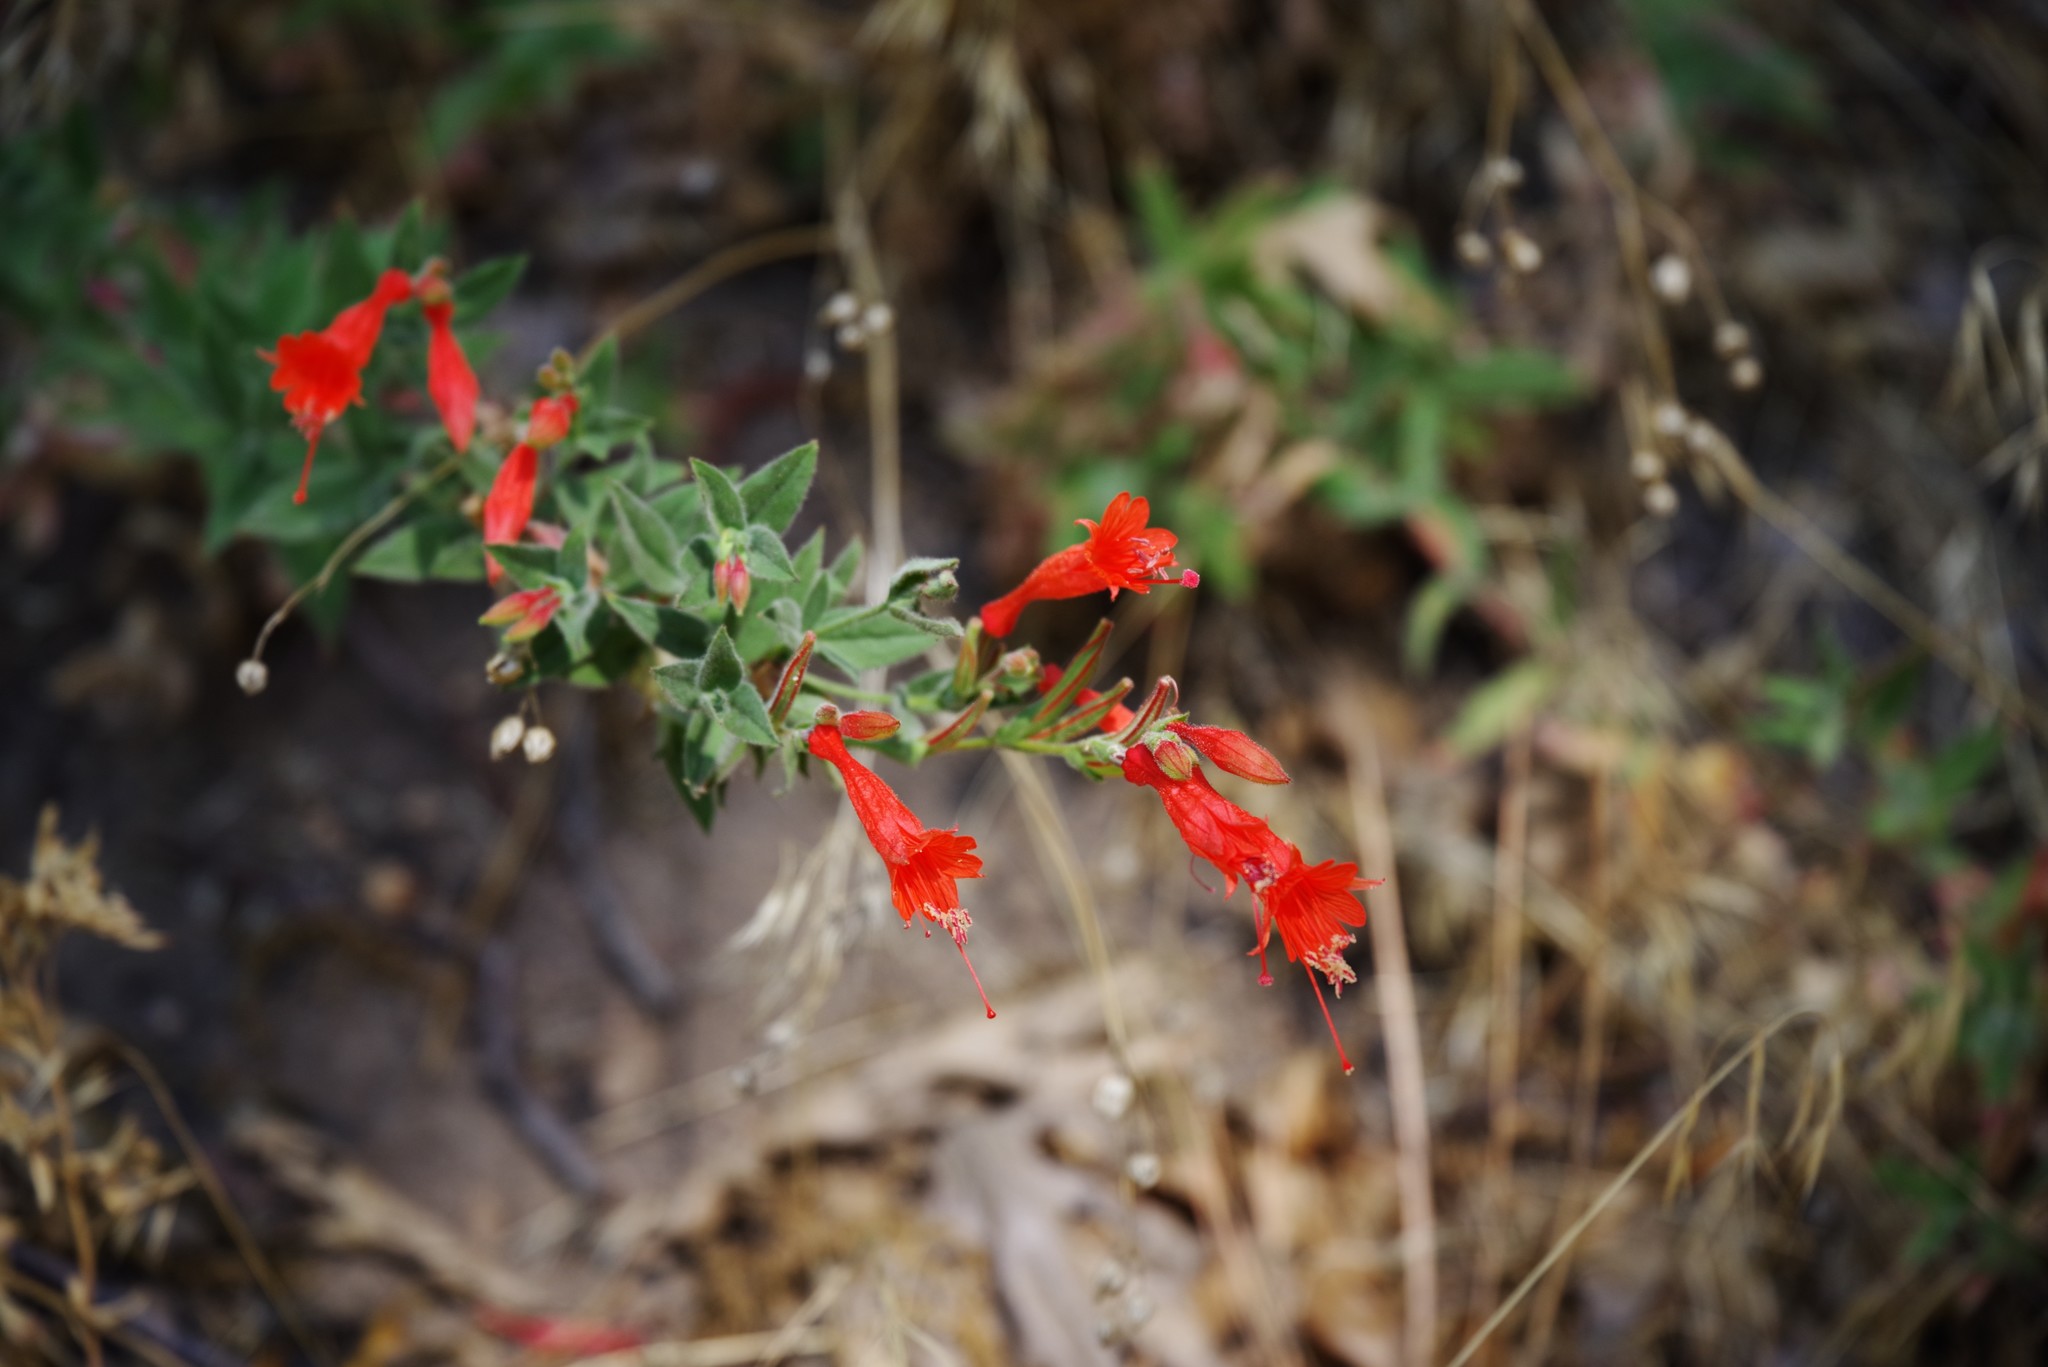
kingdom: Plantae
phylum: Tracheophyta
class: Magnoliopsida
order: Myrtales
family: Onagraceae
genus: Epilobium
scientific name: Epilobium canum
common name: California-fuchsia
